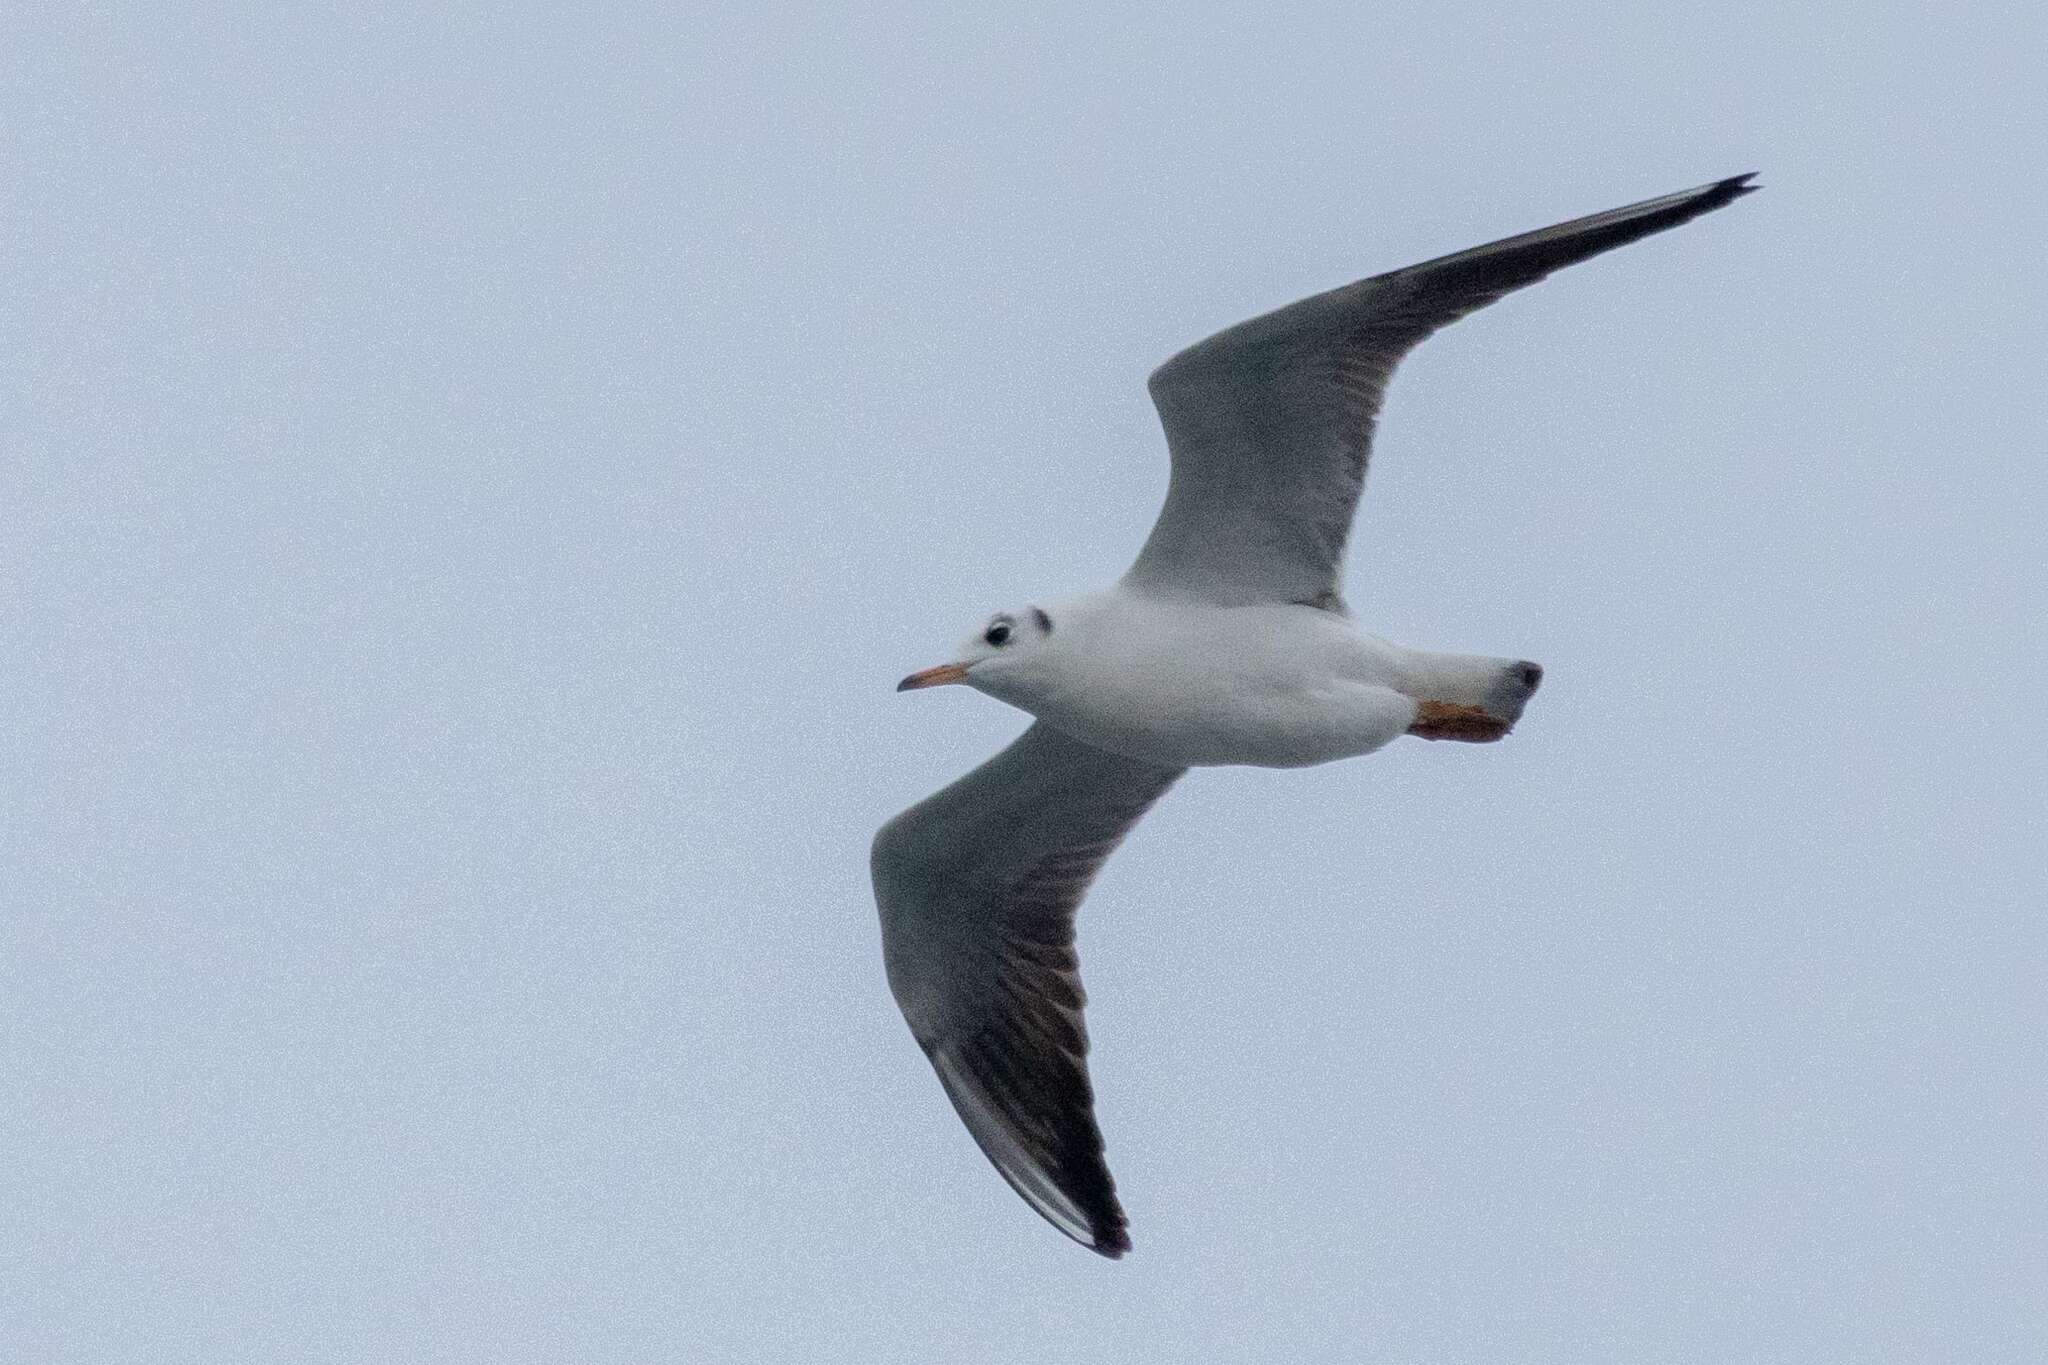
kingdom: Animalia
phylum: Chordata
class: Aves
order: Charadriiformes
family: Laridae
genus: Chroicocephalus
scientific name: Chroicocephalus ridibundus
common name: Black-headed gull
